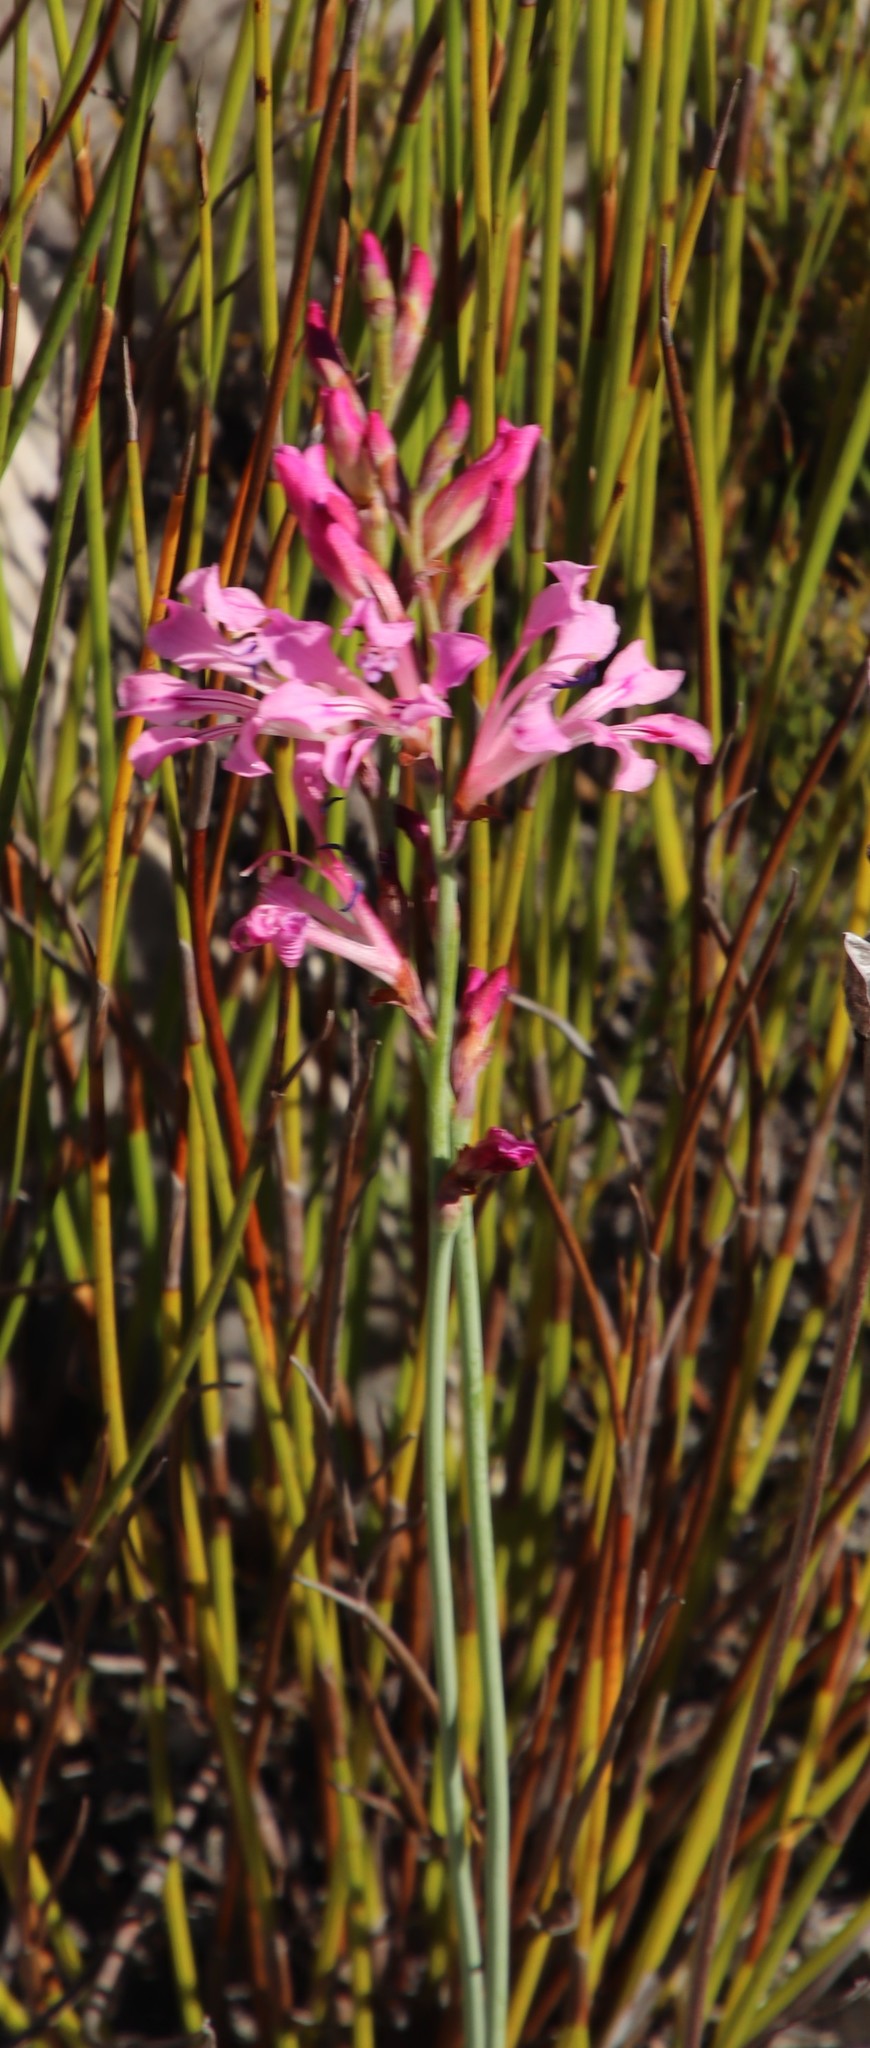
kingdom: Plantae
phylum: Tracheophyta
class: Liliopsida
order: Asparagales
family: Iridaceae
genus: Tritoniopsis
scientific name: Tritoniopsis lata
